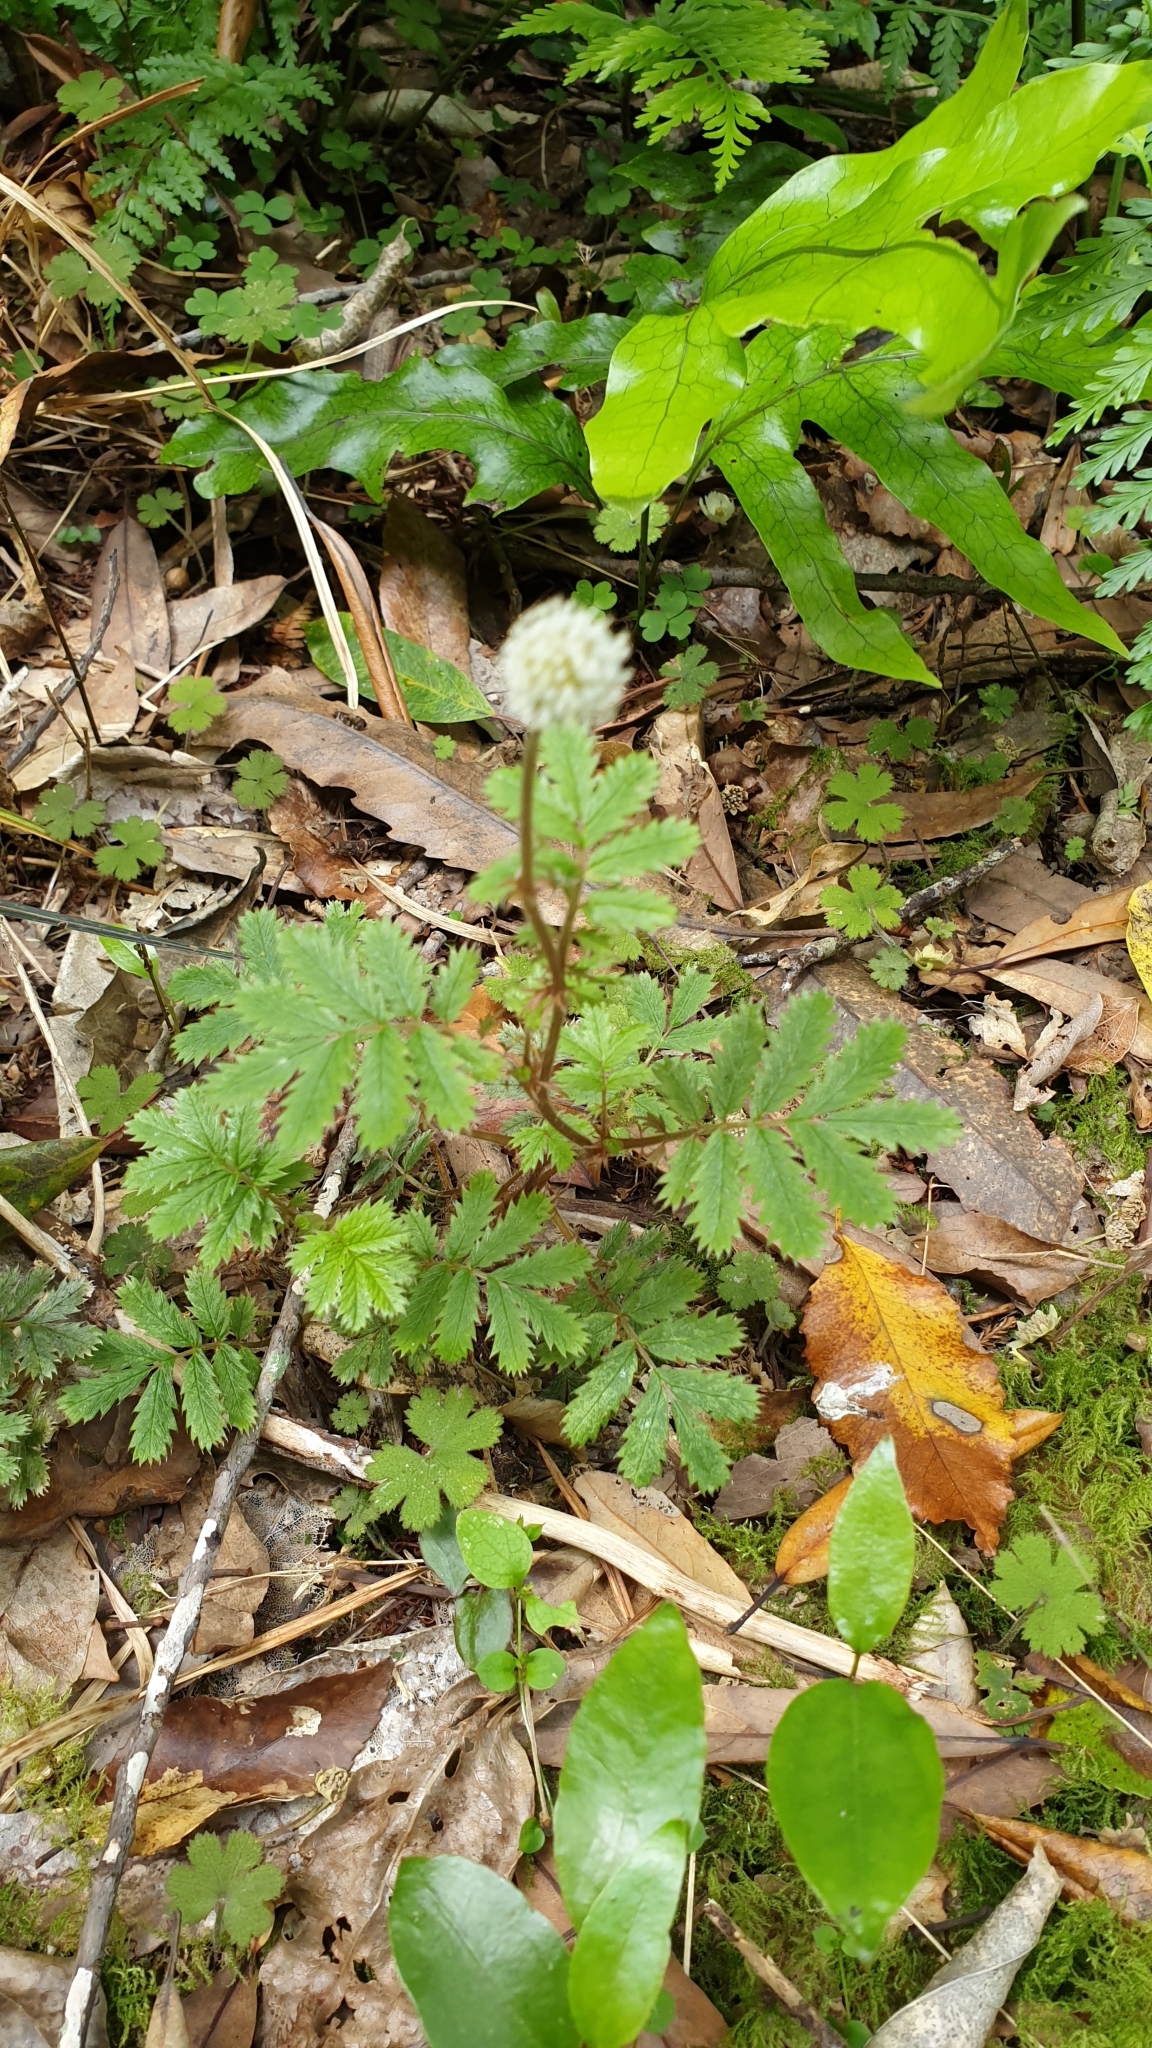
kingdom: Plantae
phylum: Tracheophyta
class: Magnoliopsida
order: Rosales
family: Rosaceae
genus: Acaena
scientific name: Acaena anserinifolia
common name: Bronze pirri-pirri-bur
